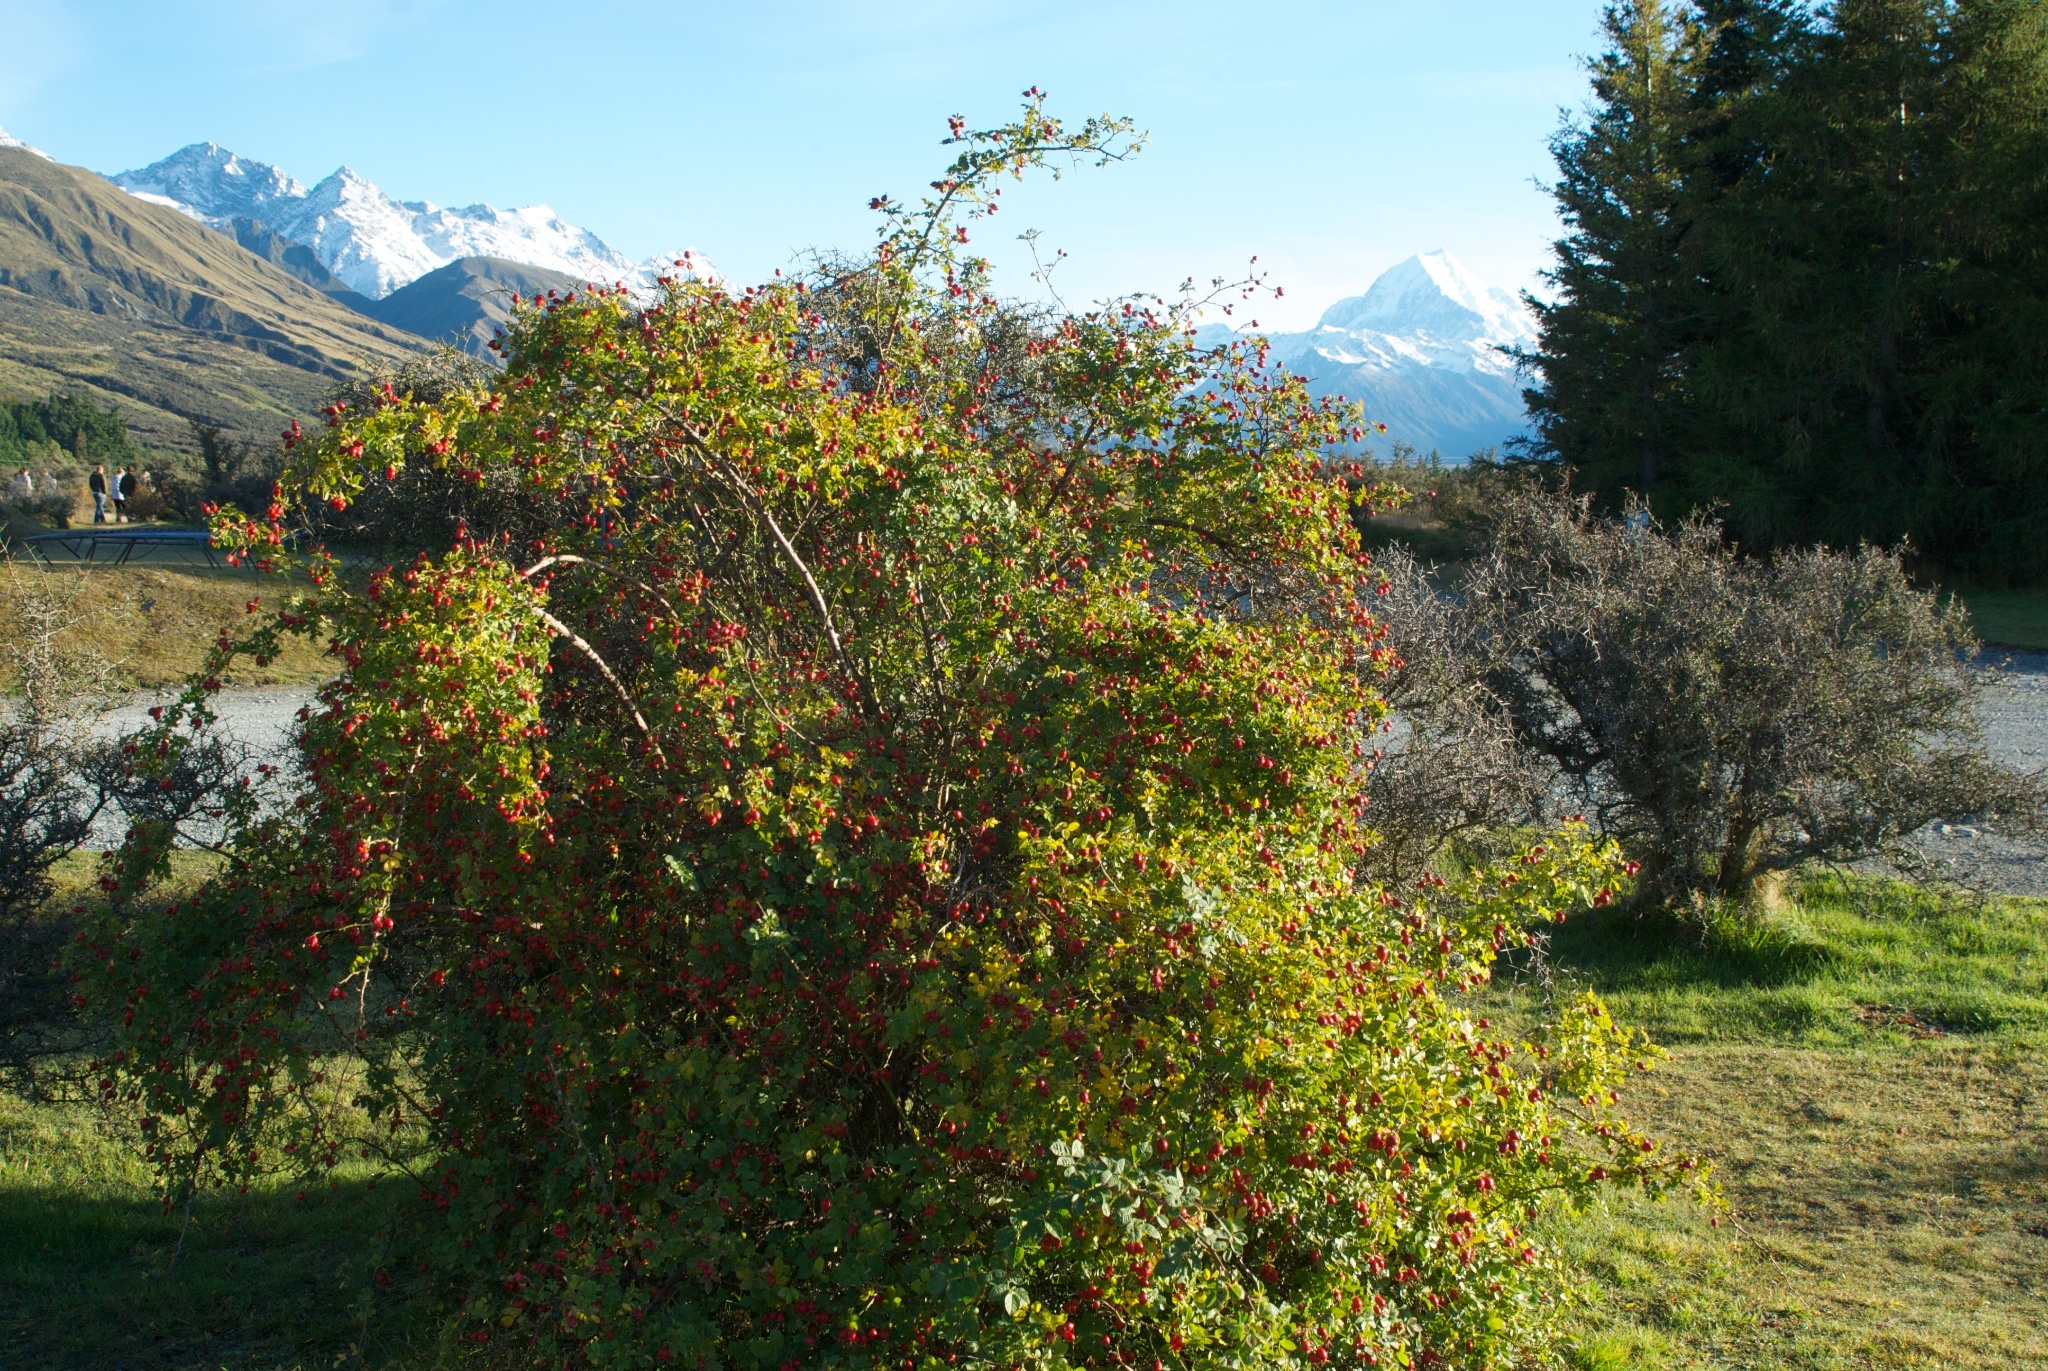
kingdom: Plantae
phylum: Tracheophyta
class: Magnoliopsida
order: Rosales
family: Rosaceae
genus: Rosa
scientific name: Rosa rubiginosa
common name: Sweet-briar
